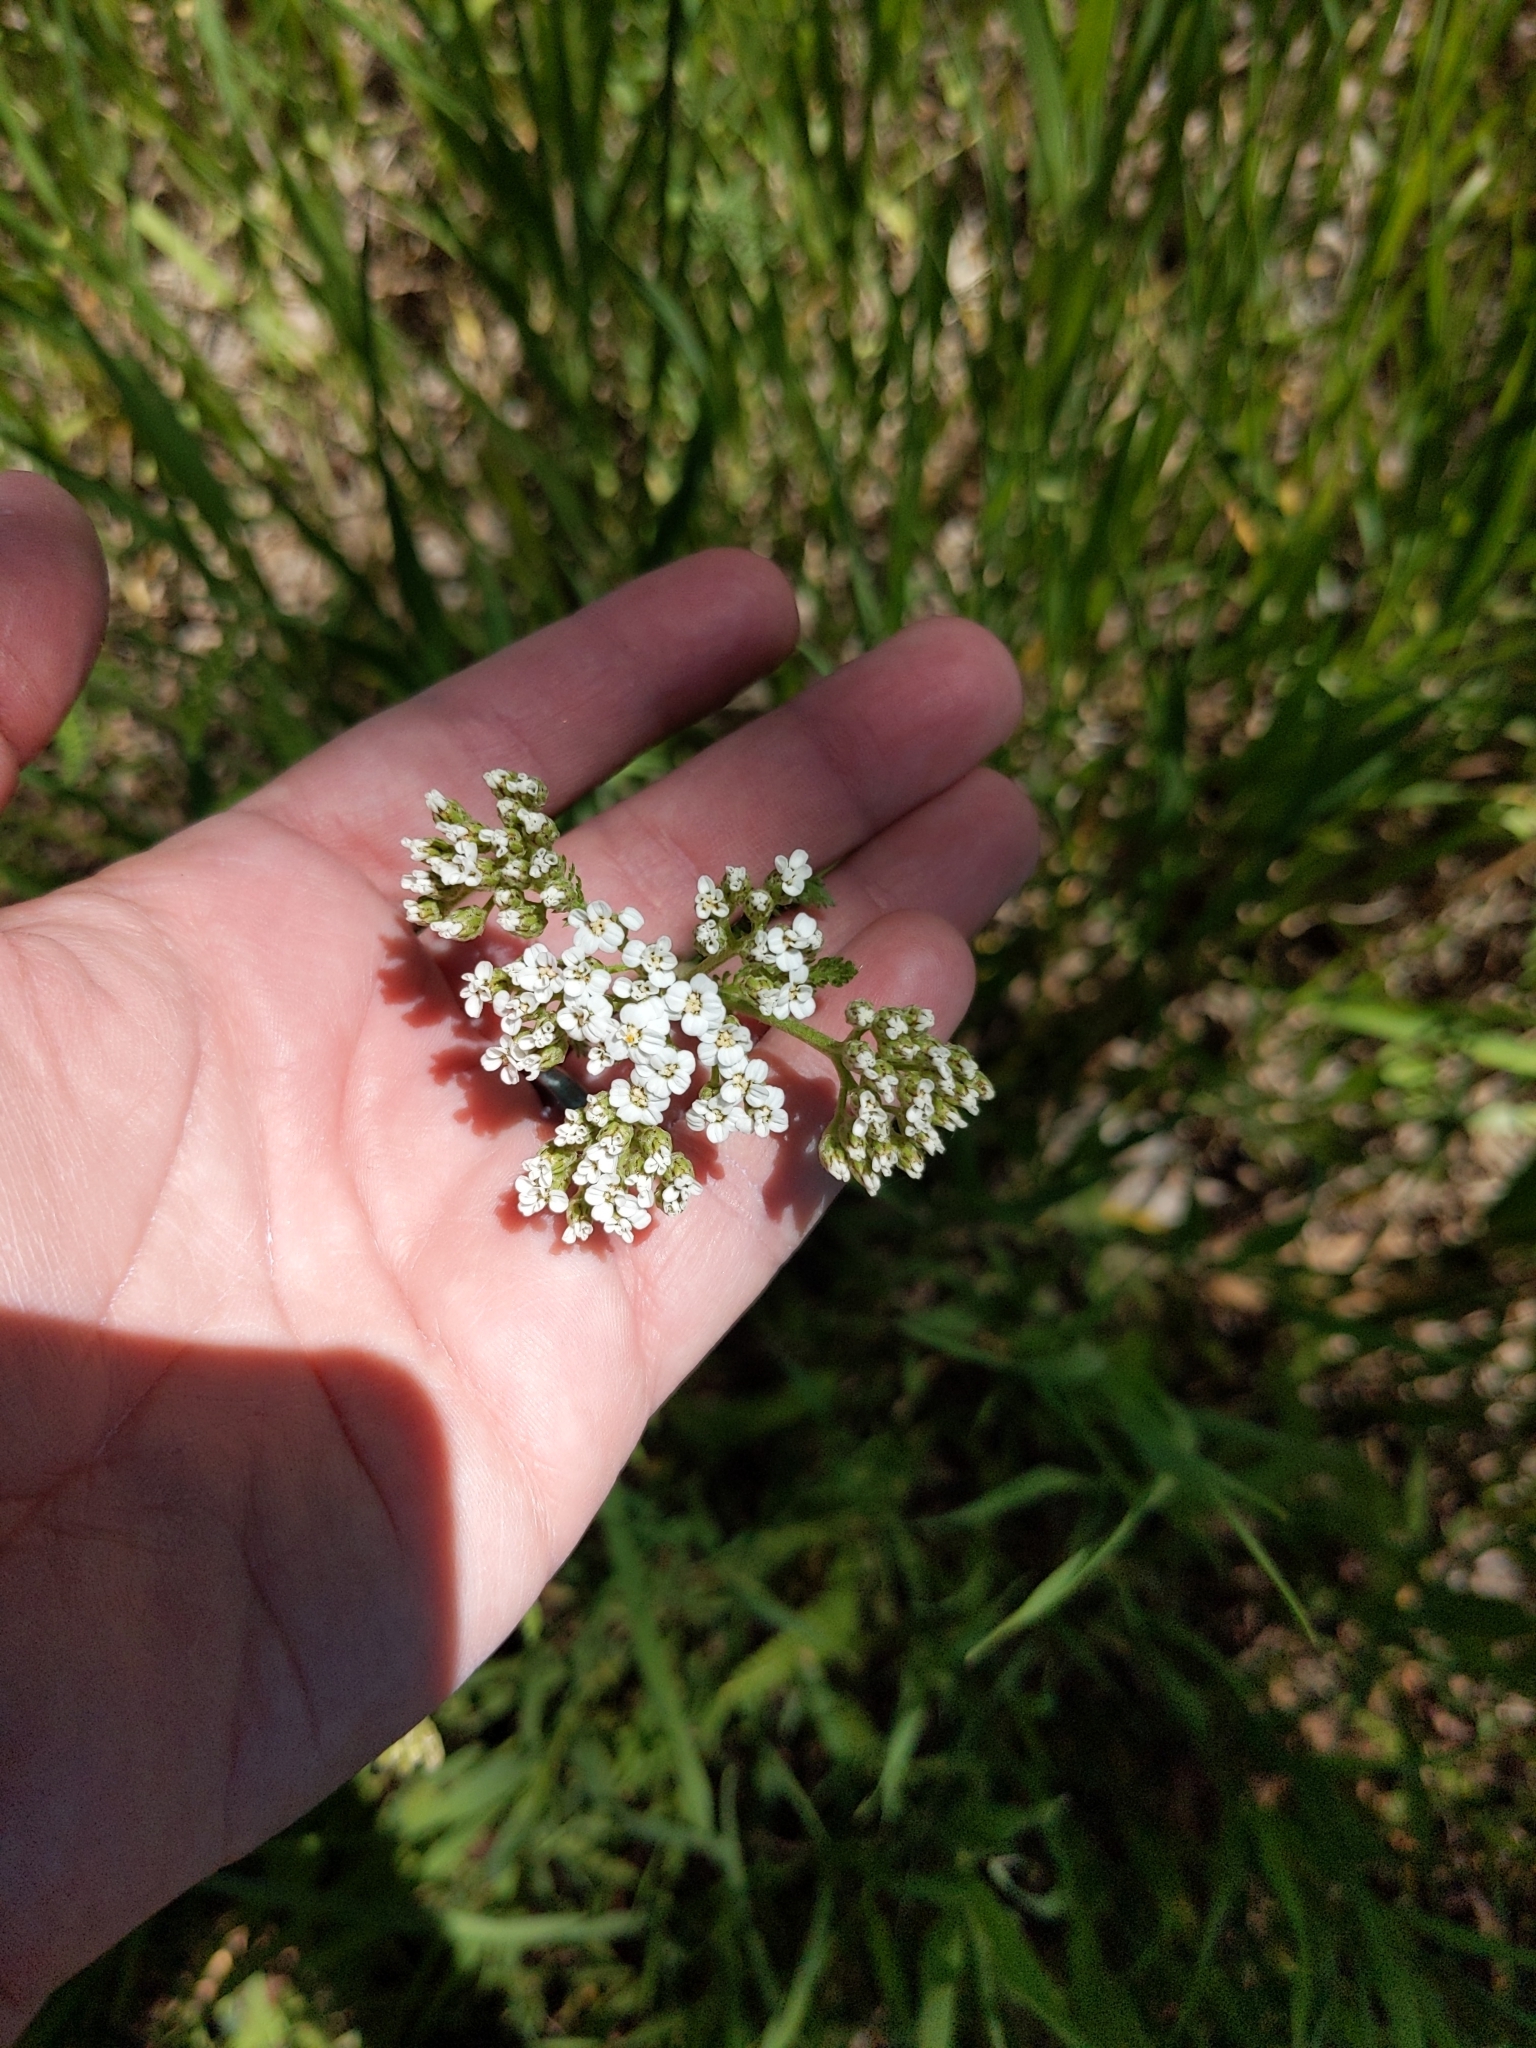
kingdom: Plantae
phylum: Tracheophyta
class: Magnoliopsida
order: Asterales
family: Asteraceae
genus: Achillea
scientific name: Achillea millefolium
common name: Yarrow
